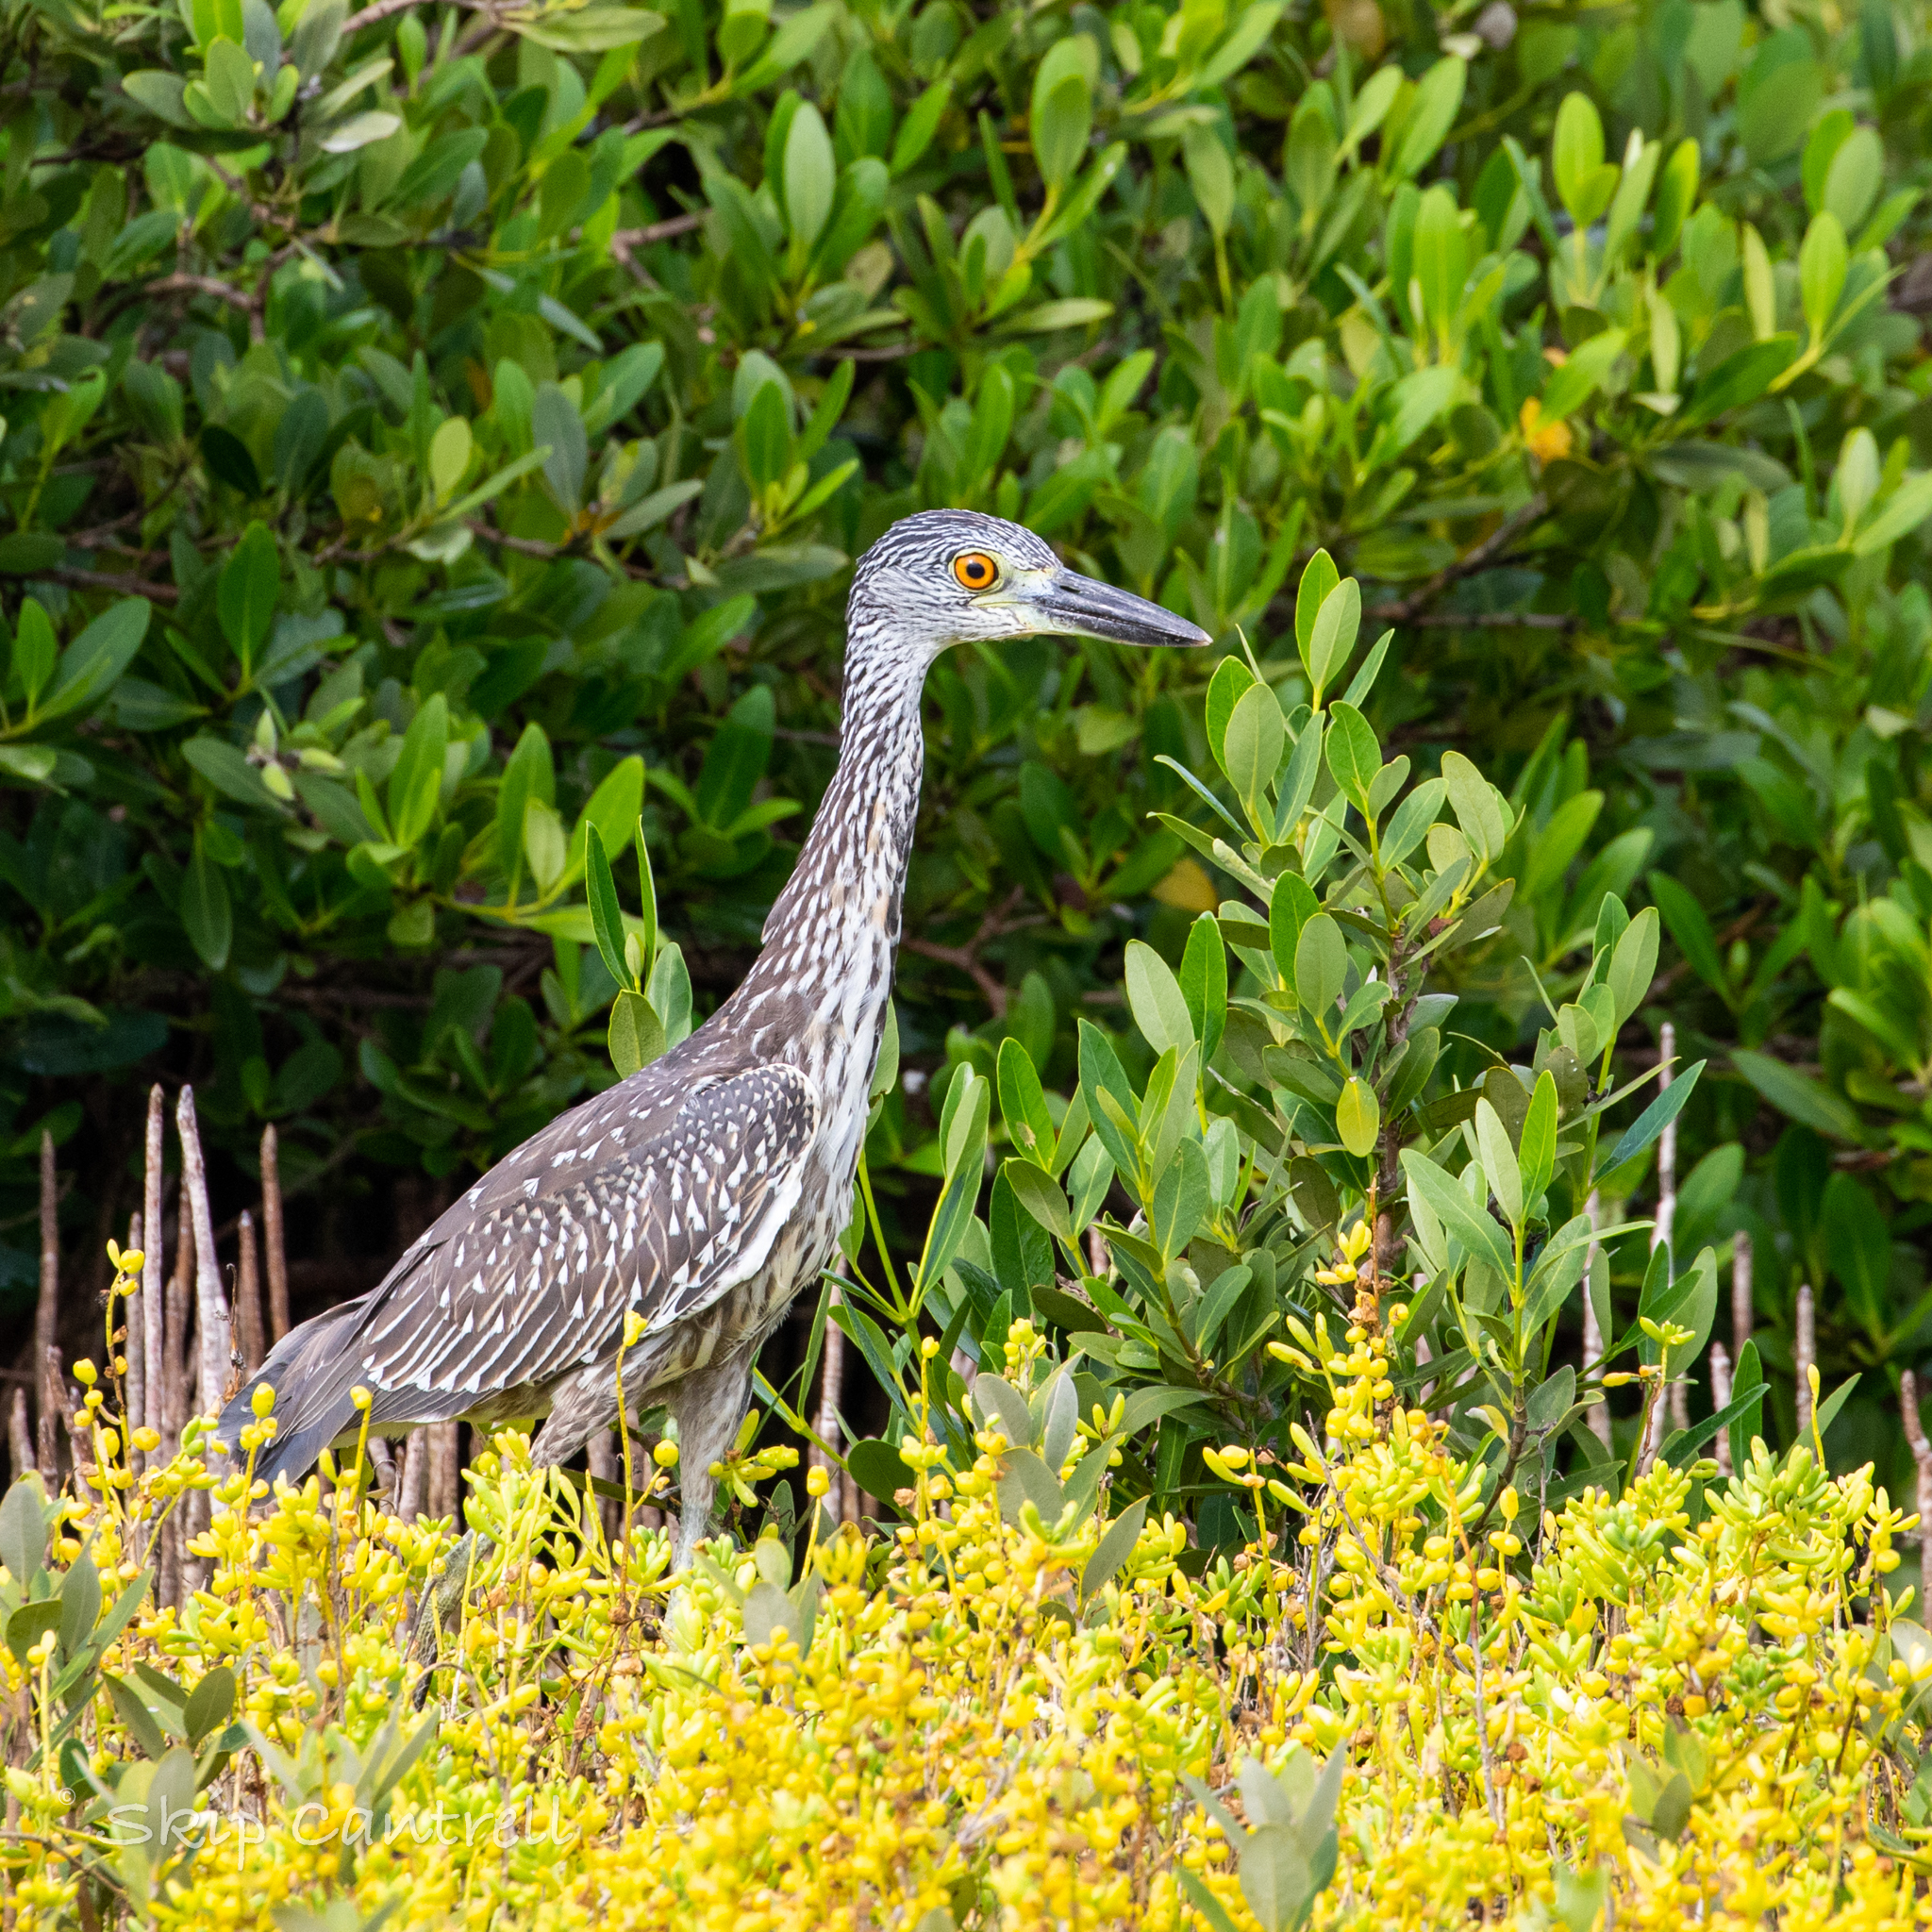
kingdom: Animalia
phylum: Chordata
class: Aves
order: Pelecaniformes
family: Ardeidae
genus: Nyctanassa
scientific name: Nyctanassa violacea
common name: Yellow-crowned night heron
